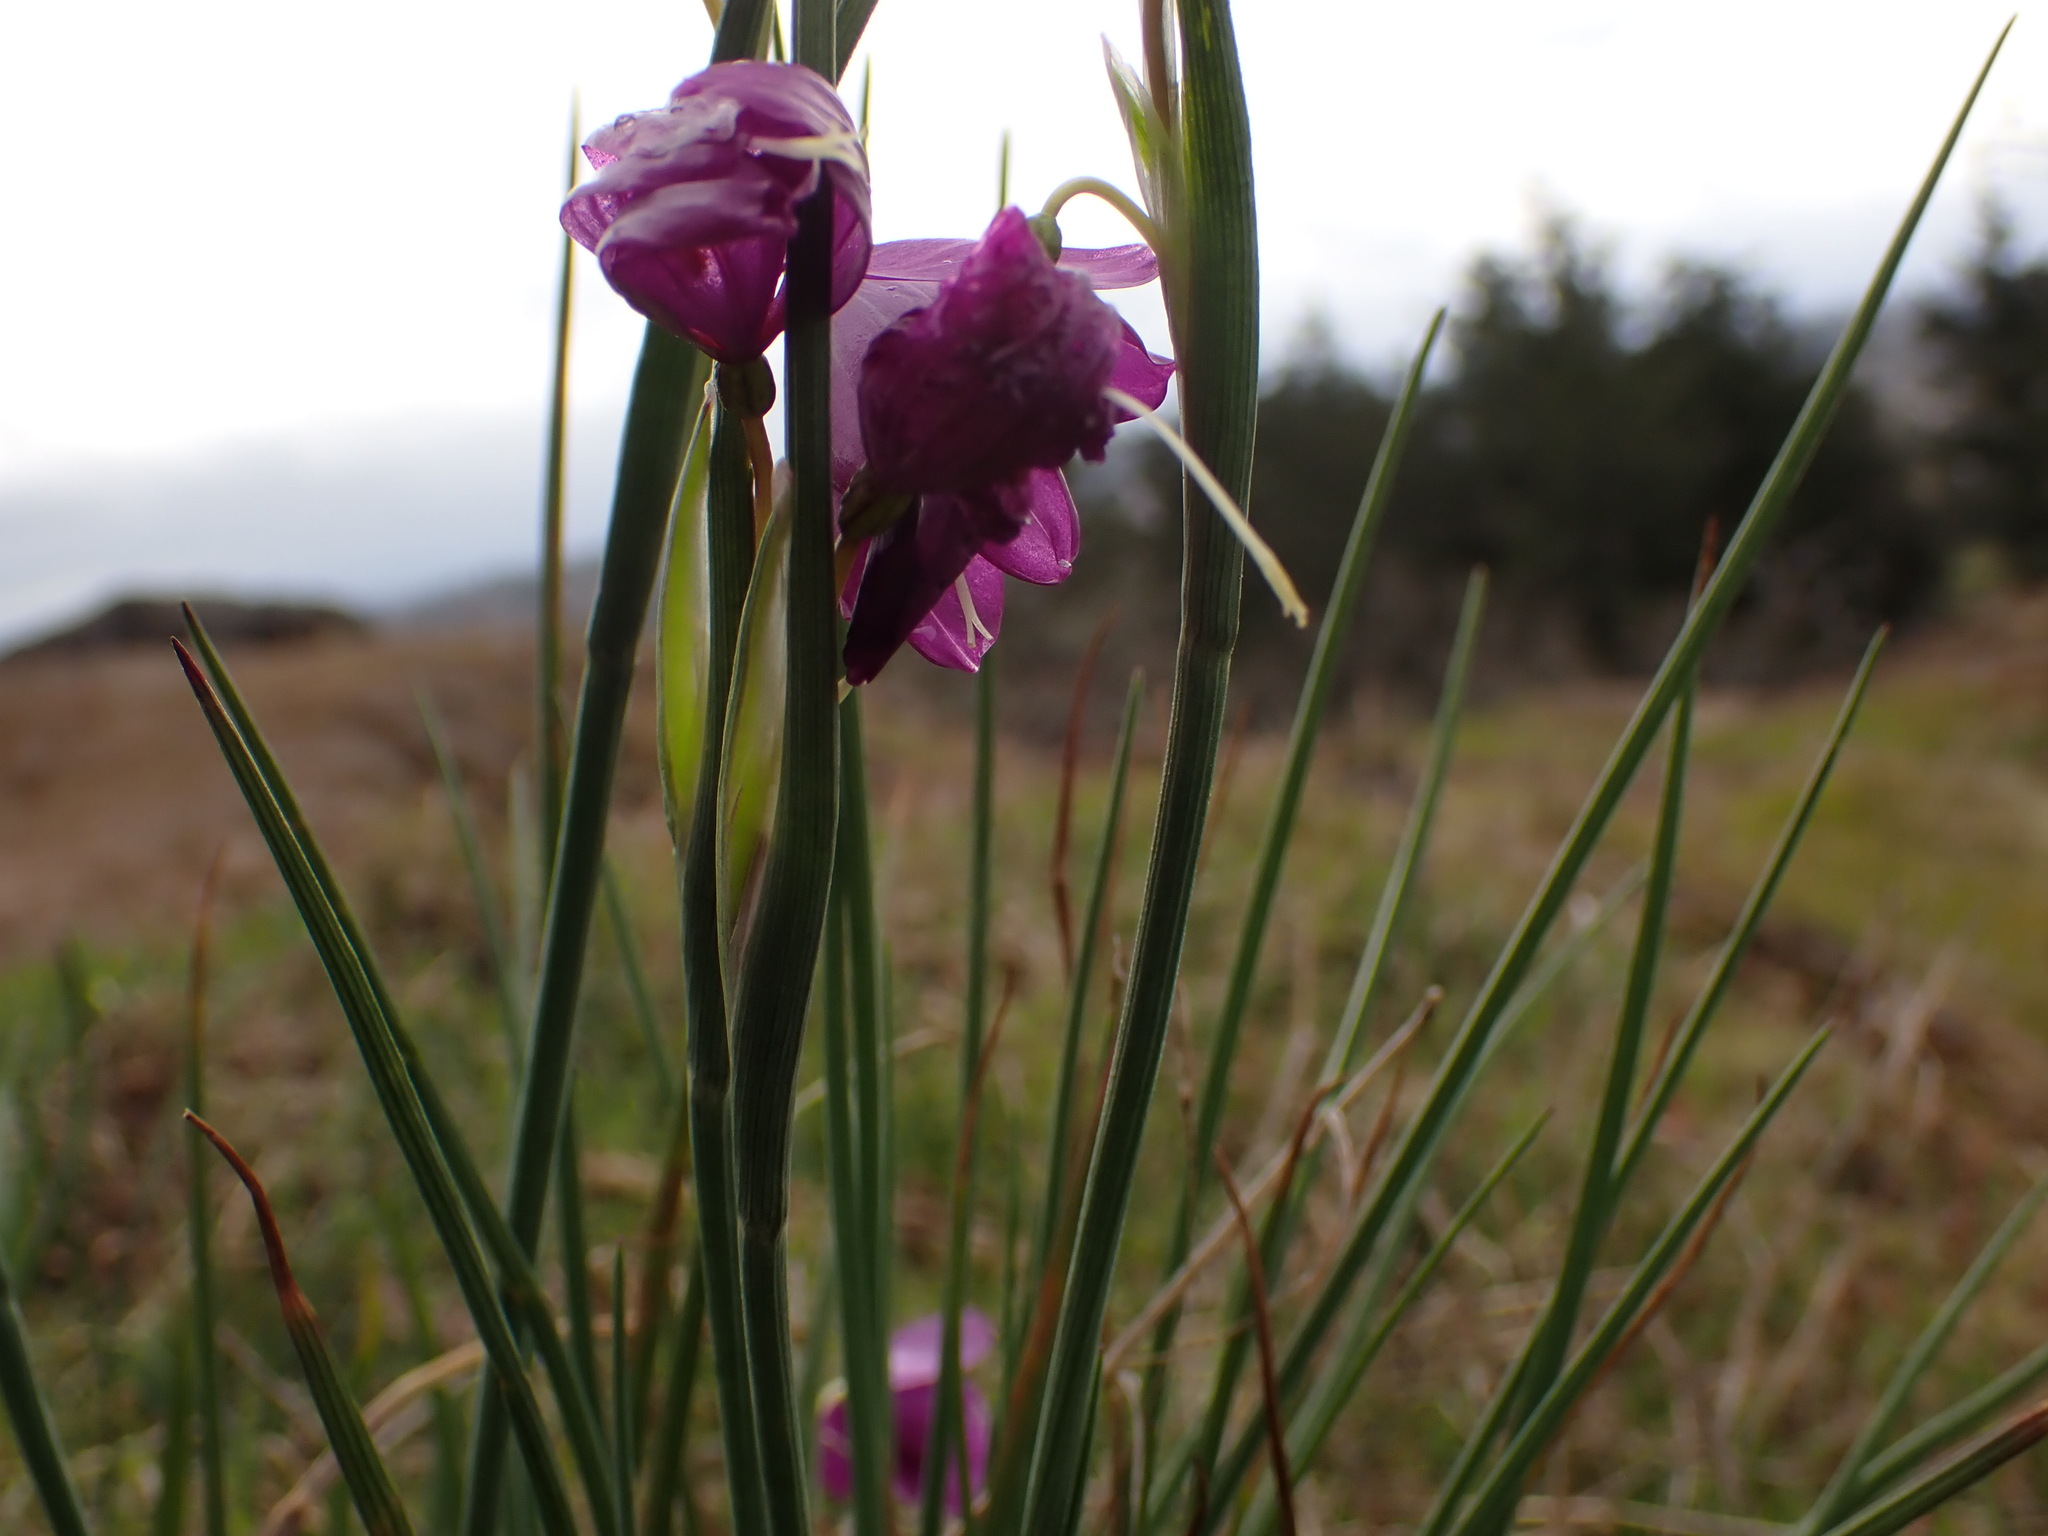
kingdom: Plantae
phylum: Tracheophyta
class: Liliopsida
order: Asparagales
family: Iridaceae
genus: Olsynium
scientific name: Olsynium douglasii
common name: Douglas' grasswidow
